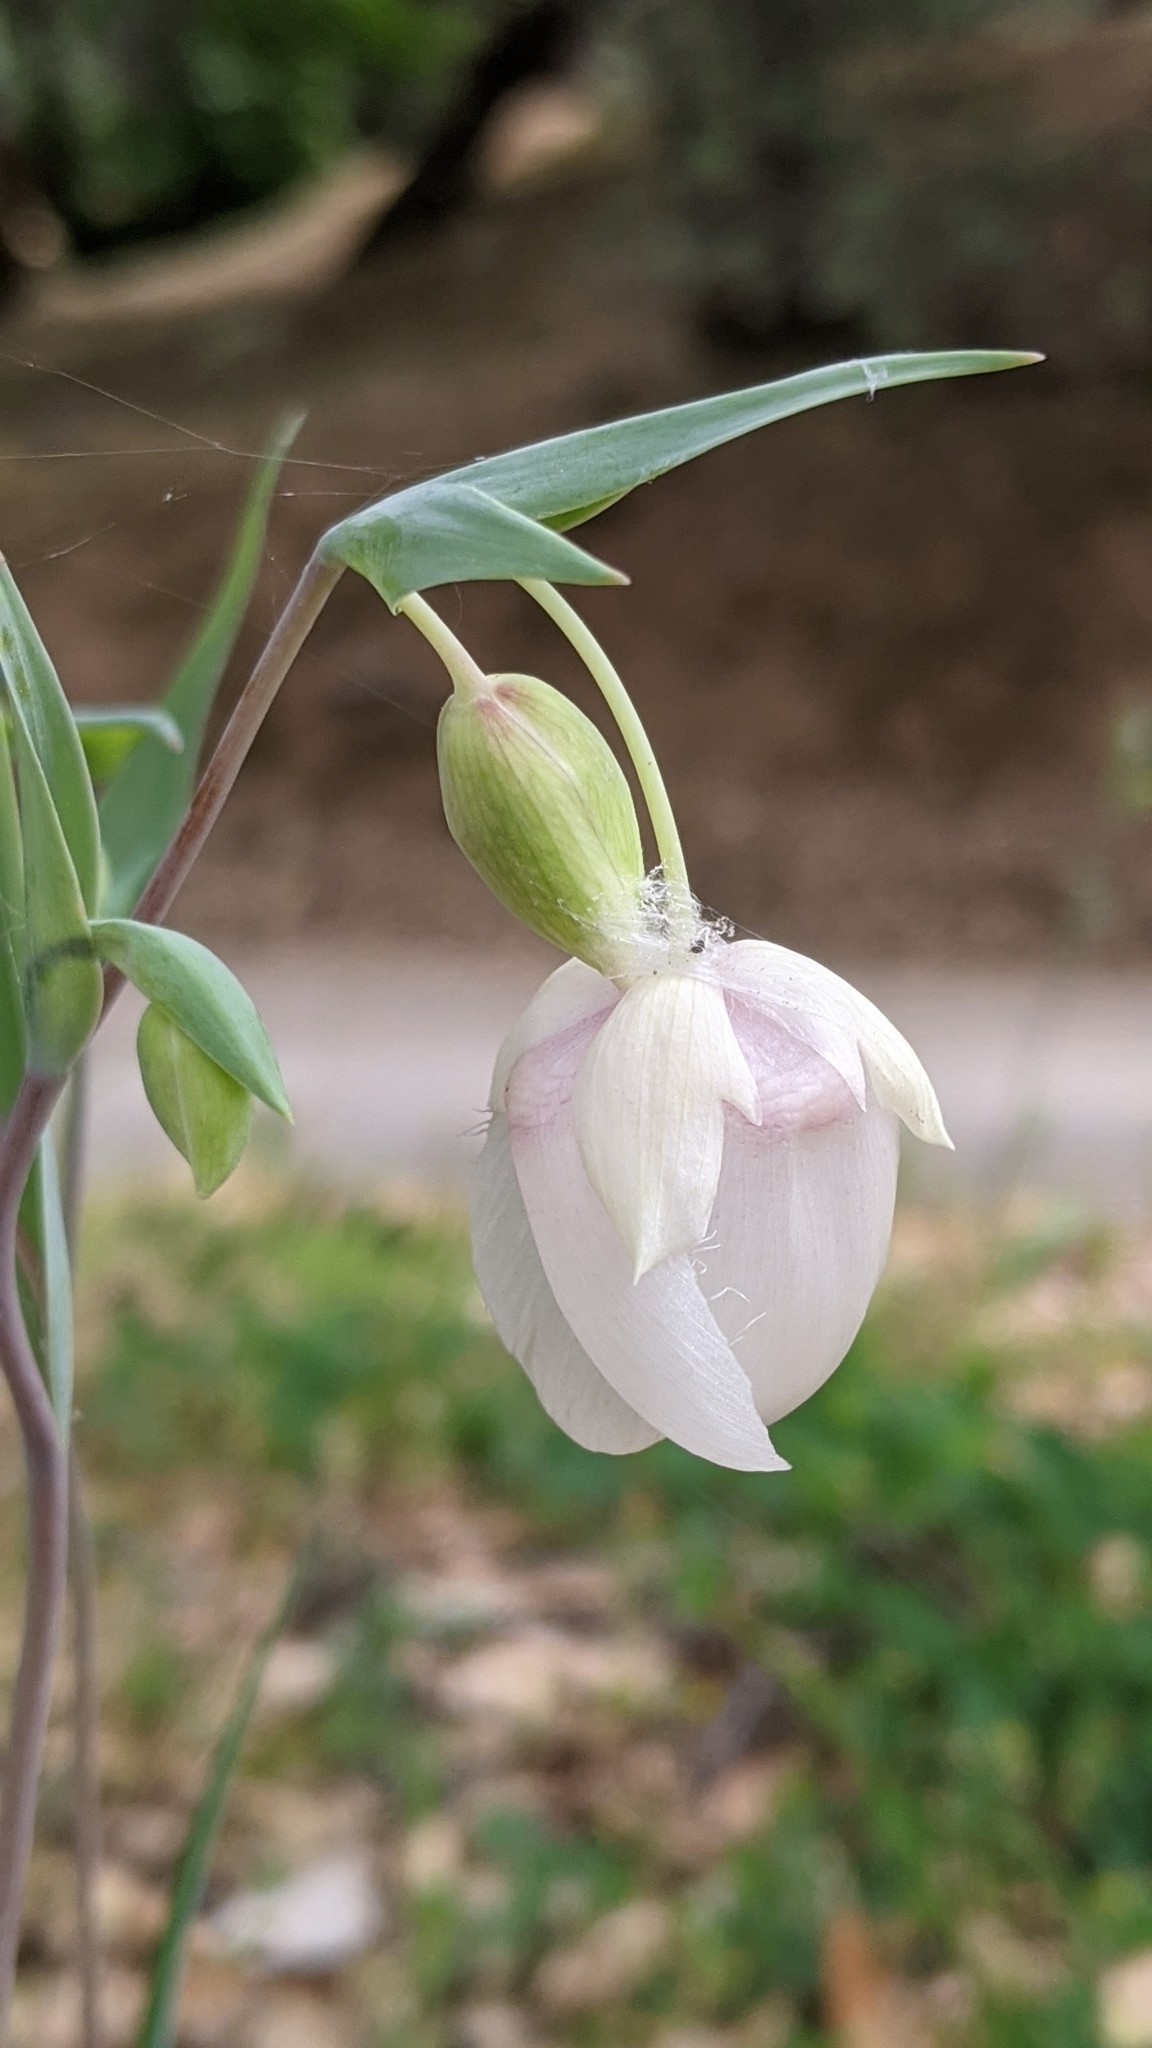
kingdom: Plantae
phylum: Tracheophyta
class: Liliopsida
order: Liliales
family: Liliaceae
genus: Calochortus
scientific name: Calochortus albus
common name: Fairy-lantern
